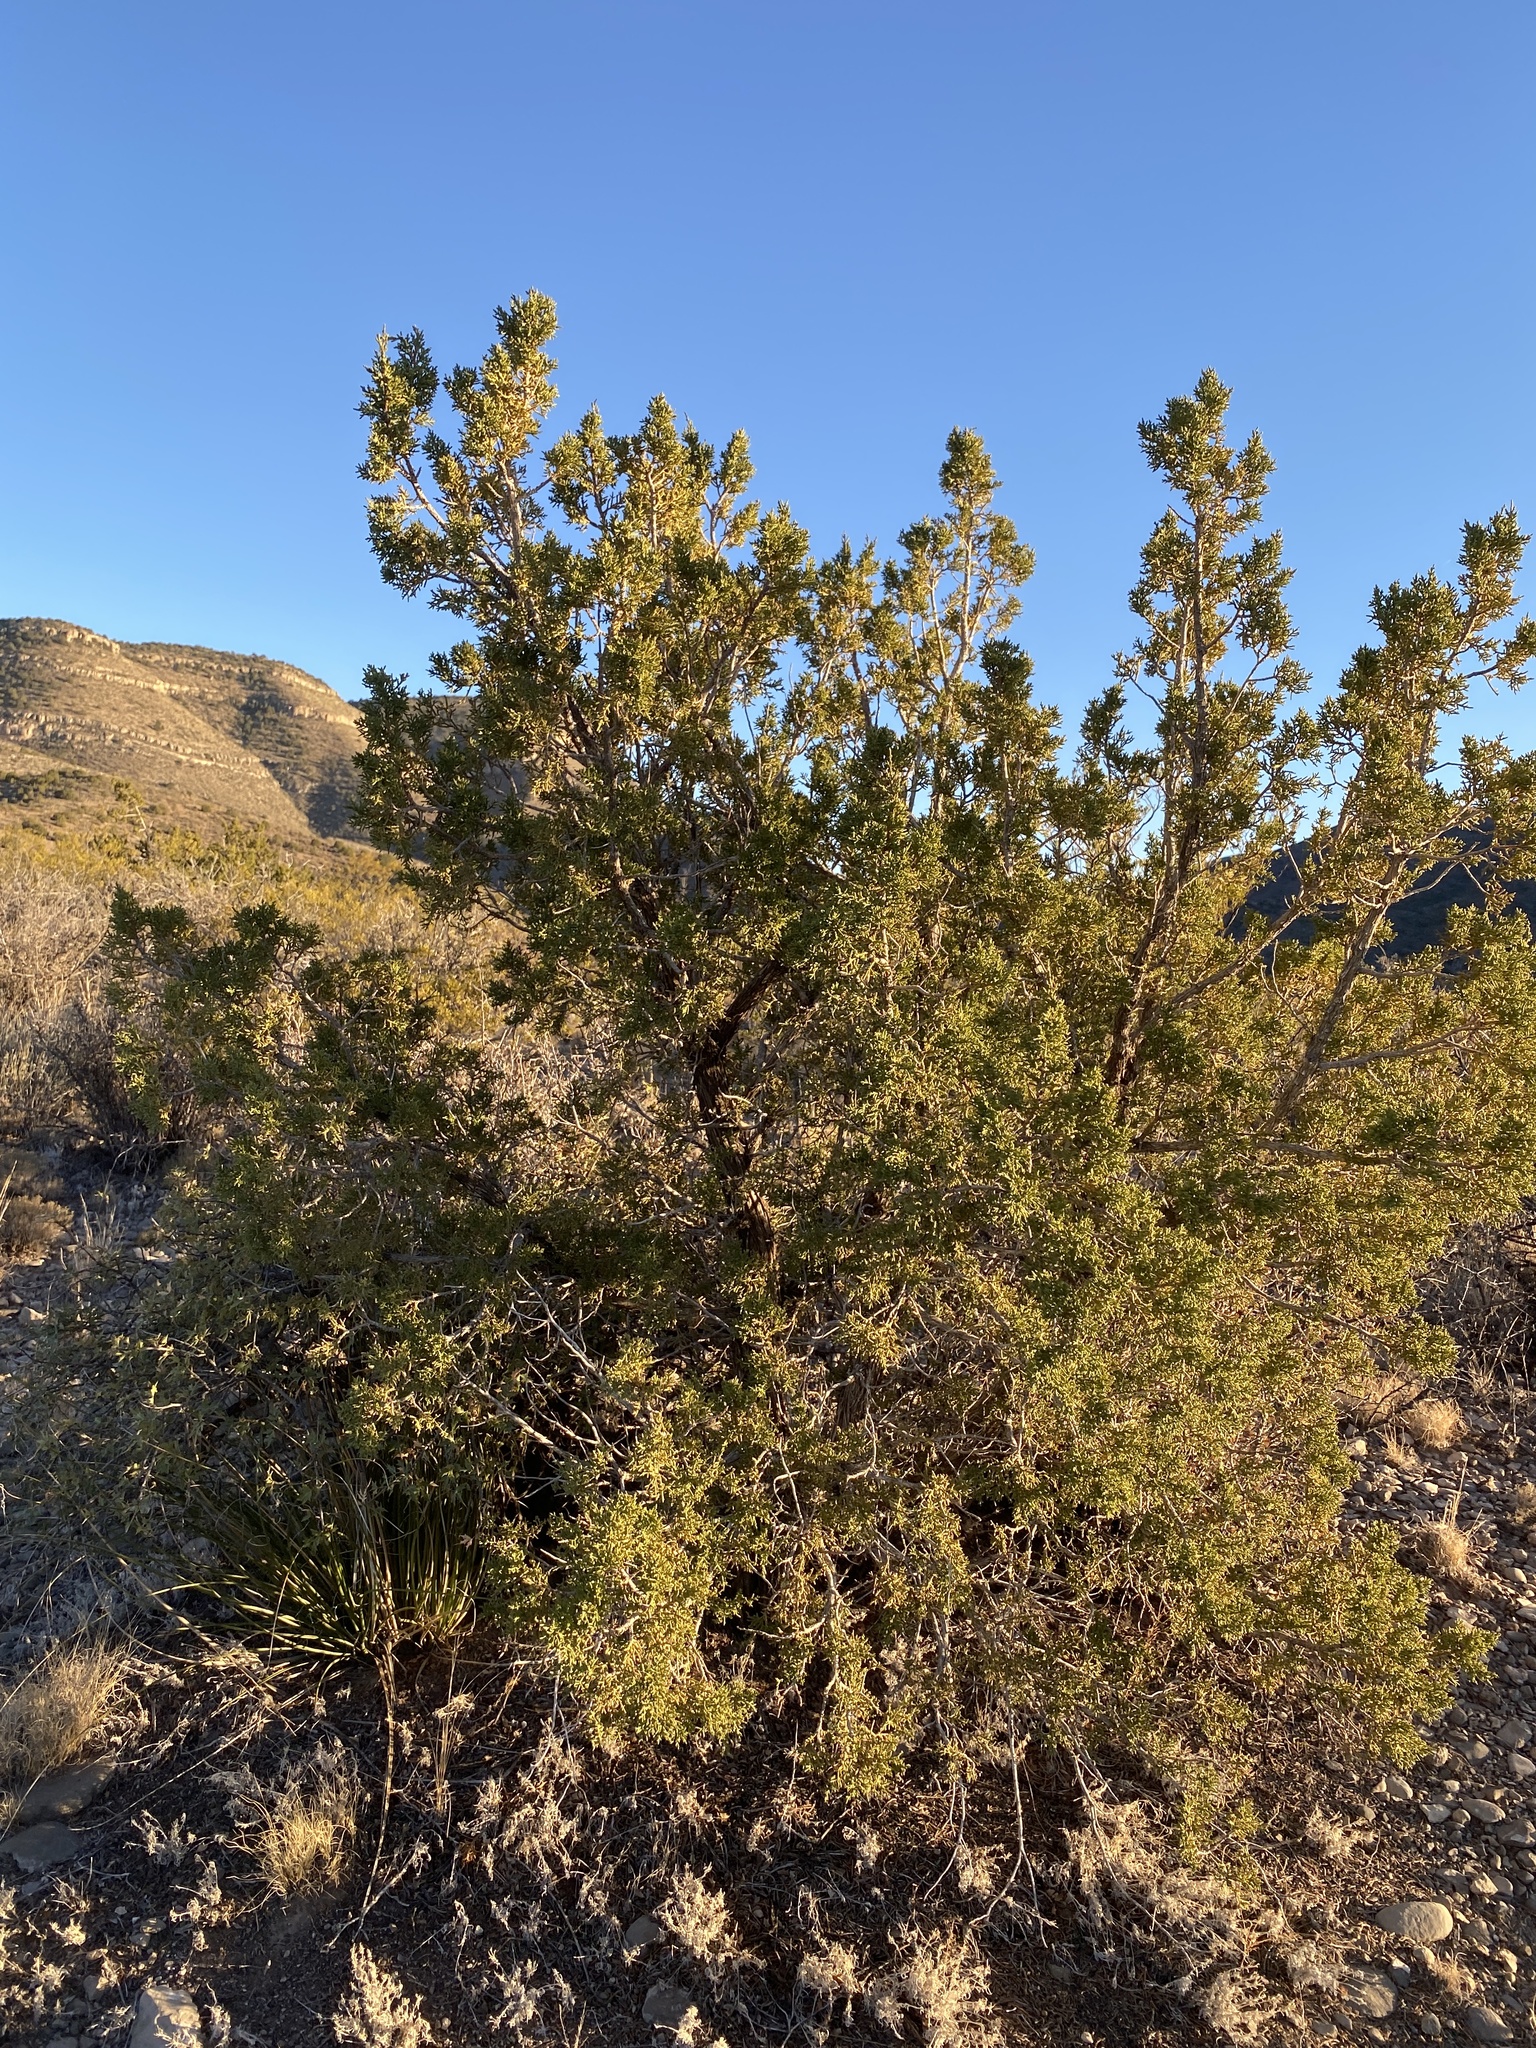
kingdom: Plantae
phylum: Tracheophyta
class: Pinopsida
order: Pinales
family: Cupressaceae
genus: Juniperus
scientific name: Juniperus monosperma
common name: One-seed juniper
